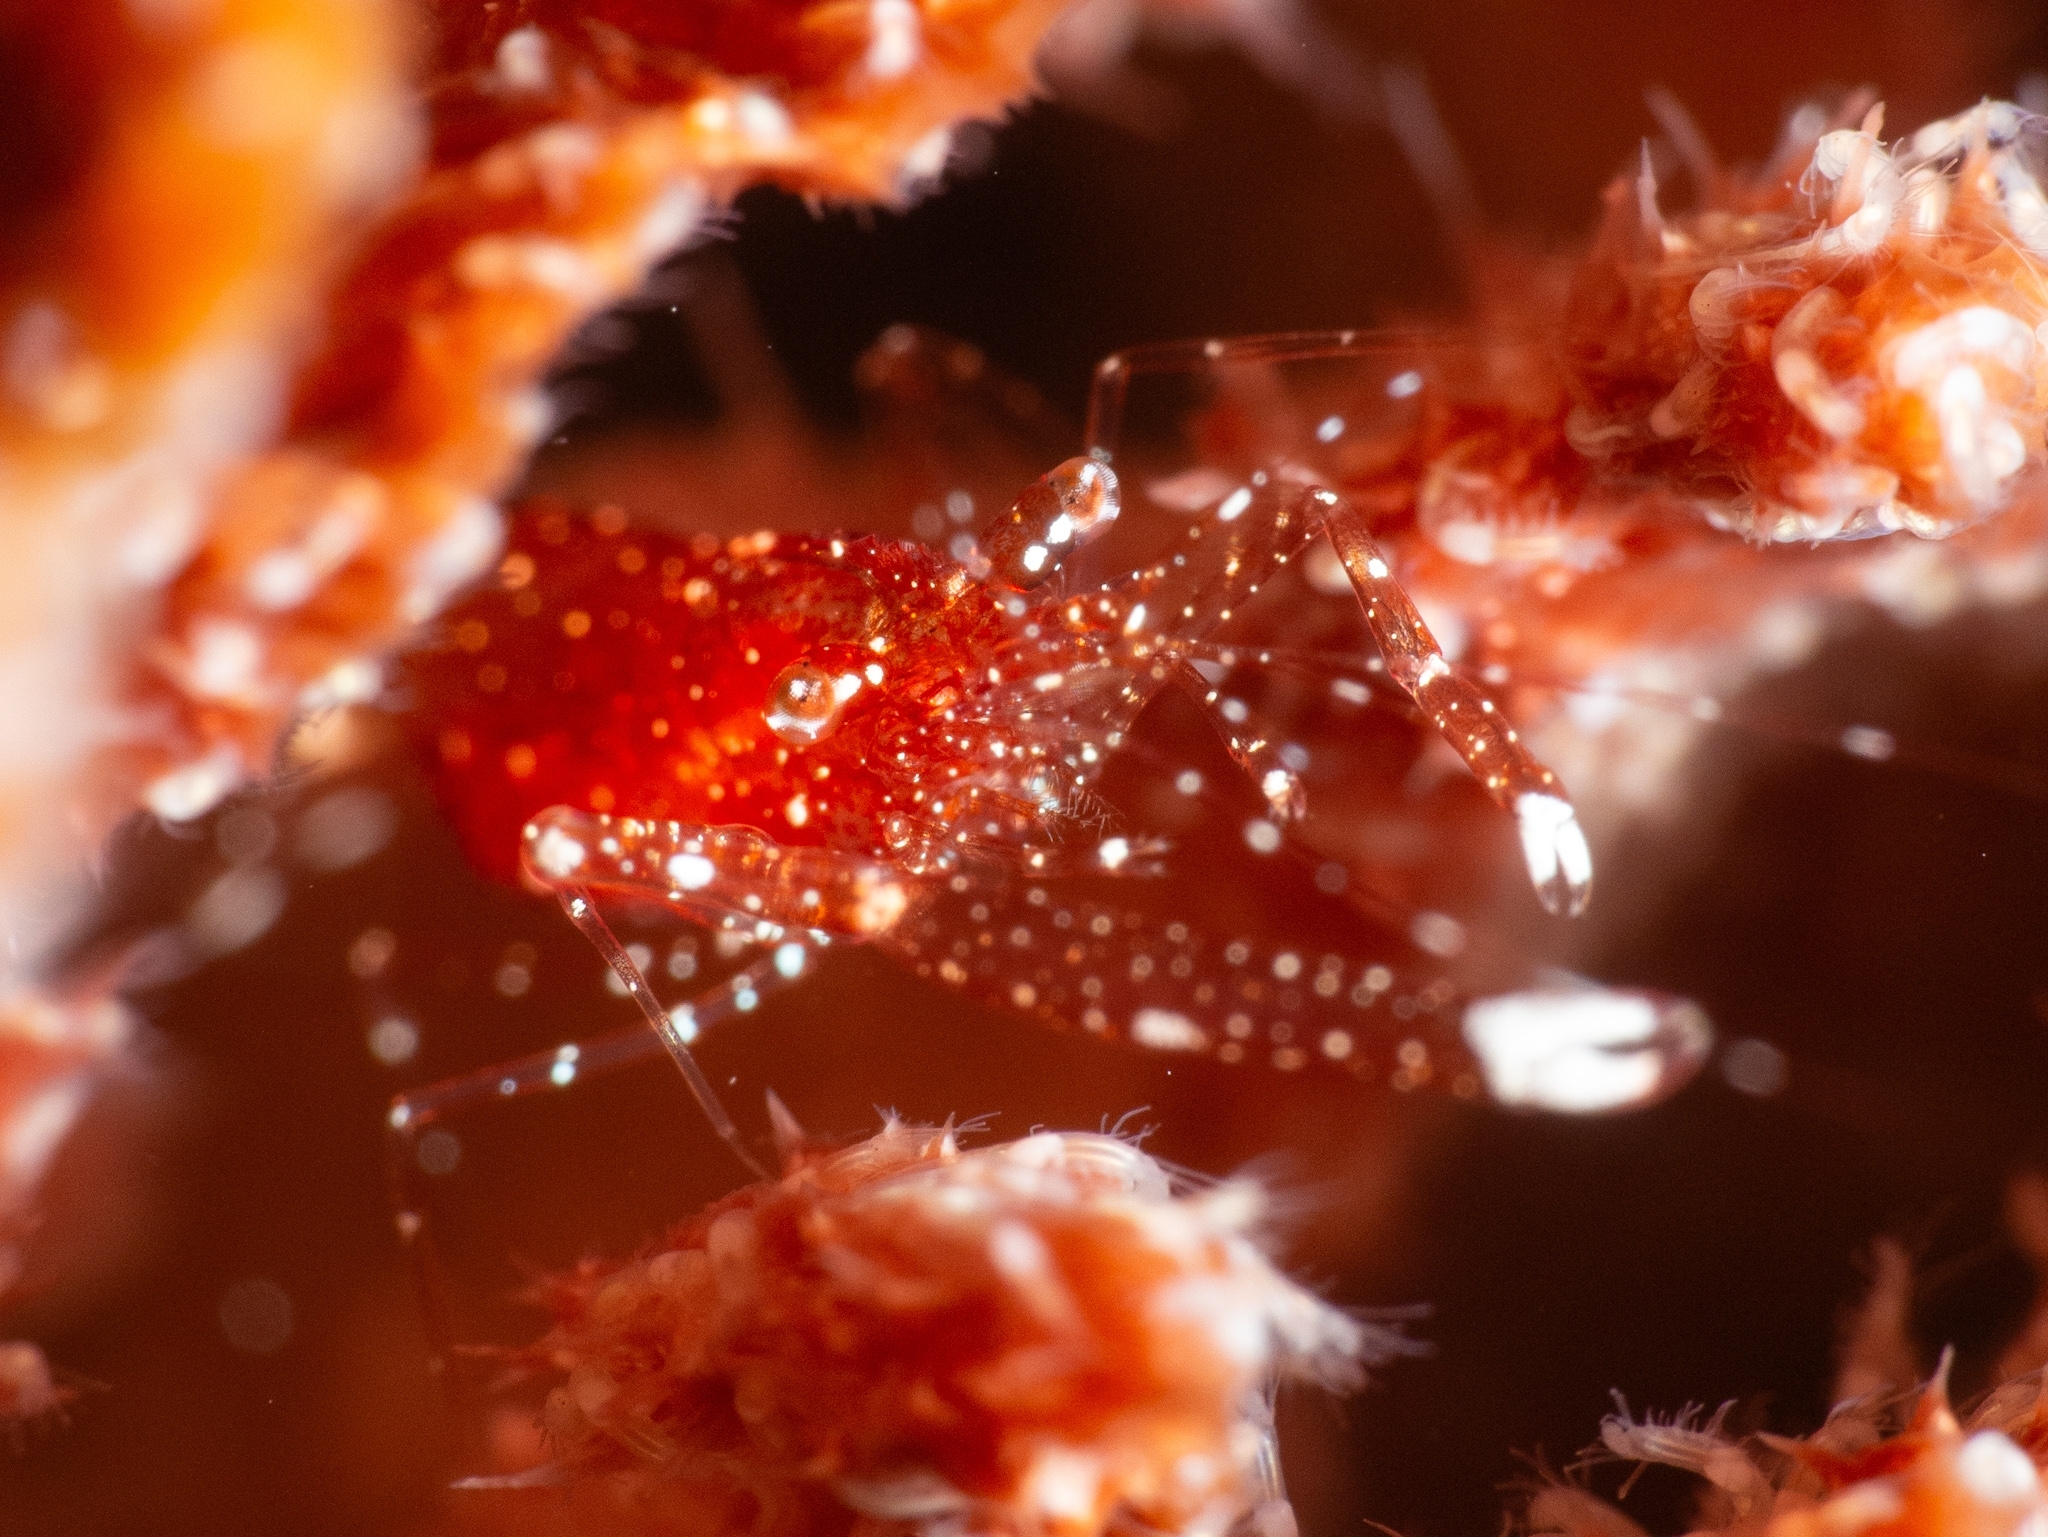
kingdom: Animalia
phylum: Arthropoda
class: Malacostraca
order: Decapoda
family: Palaemonidae
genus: Periclimenes
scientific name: Periclimenes harringtoni
